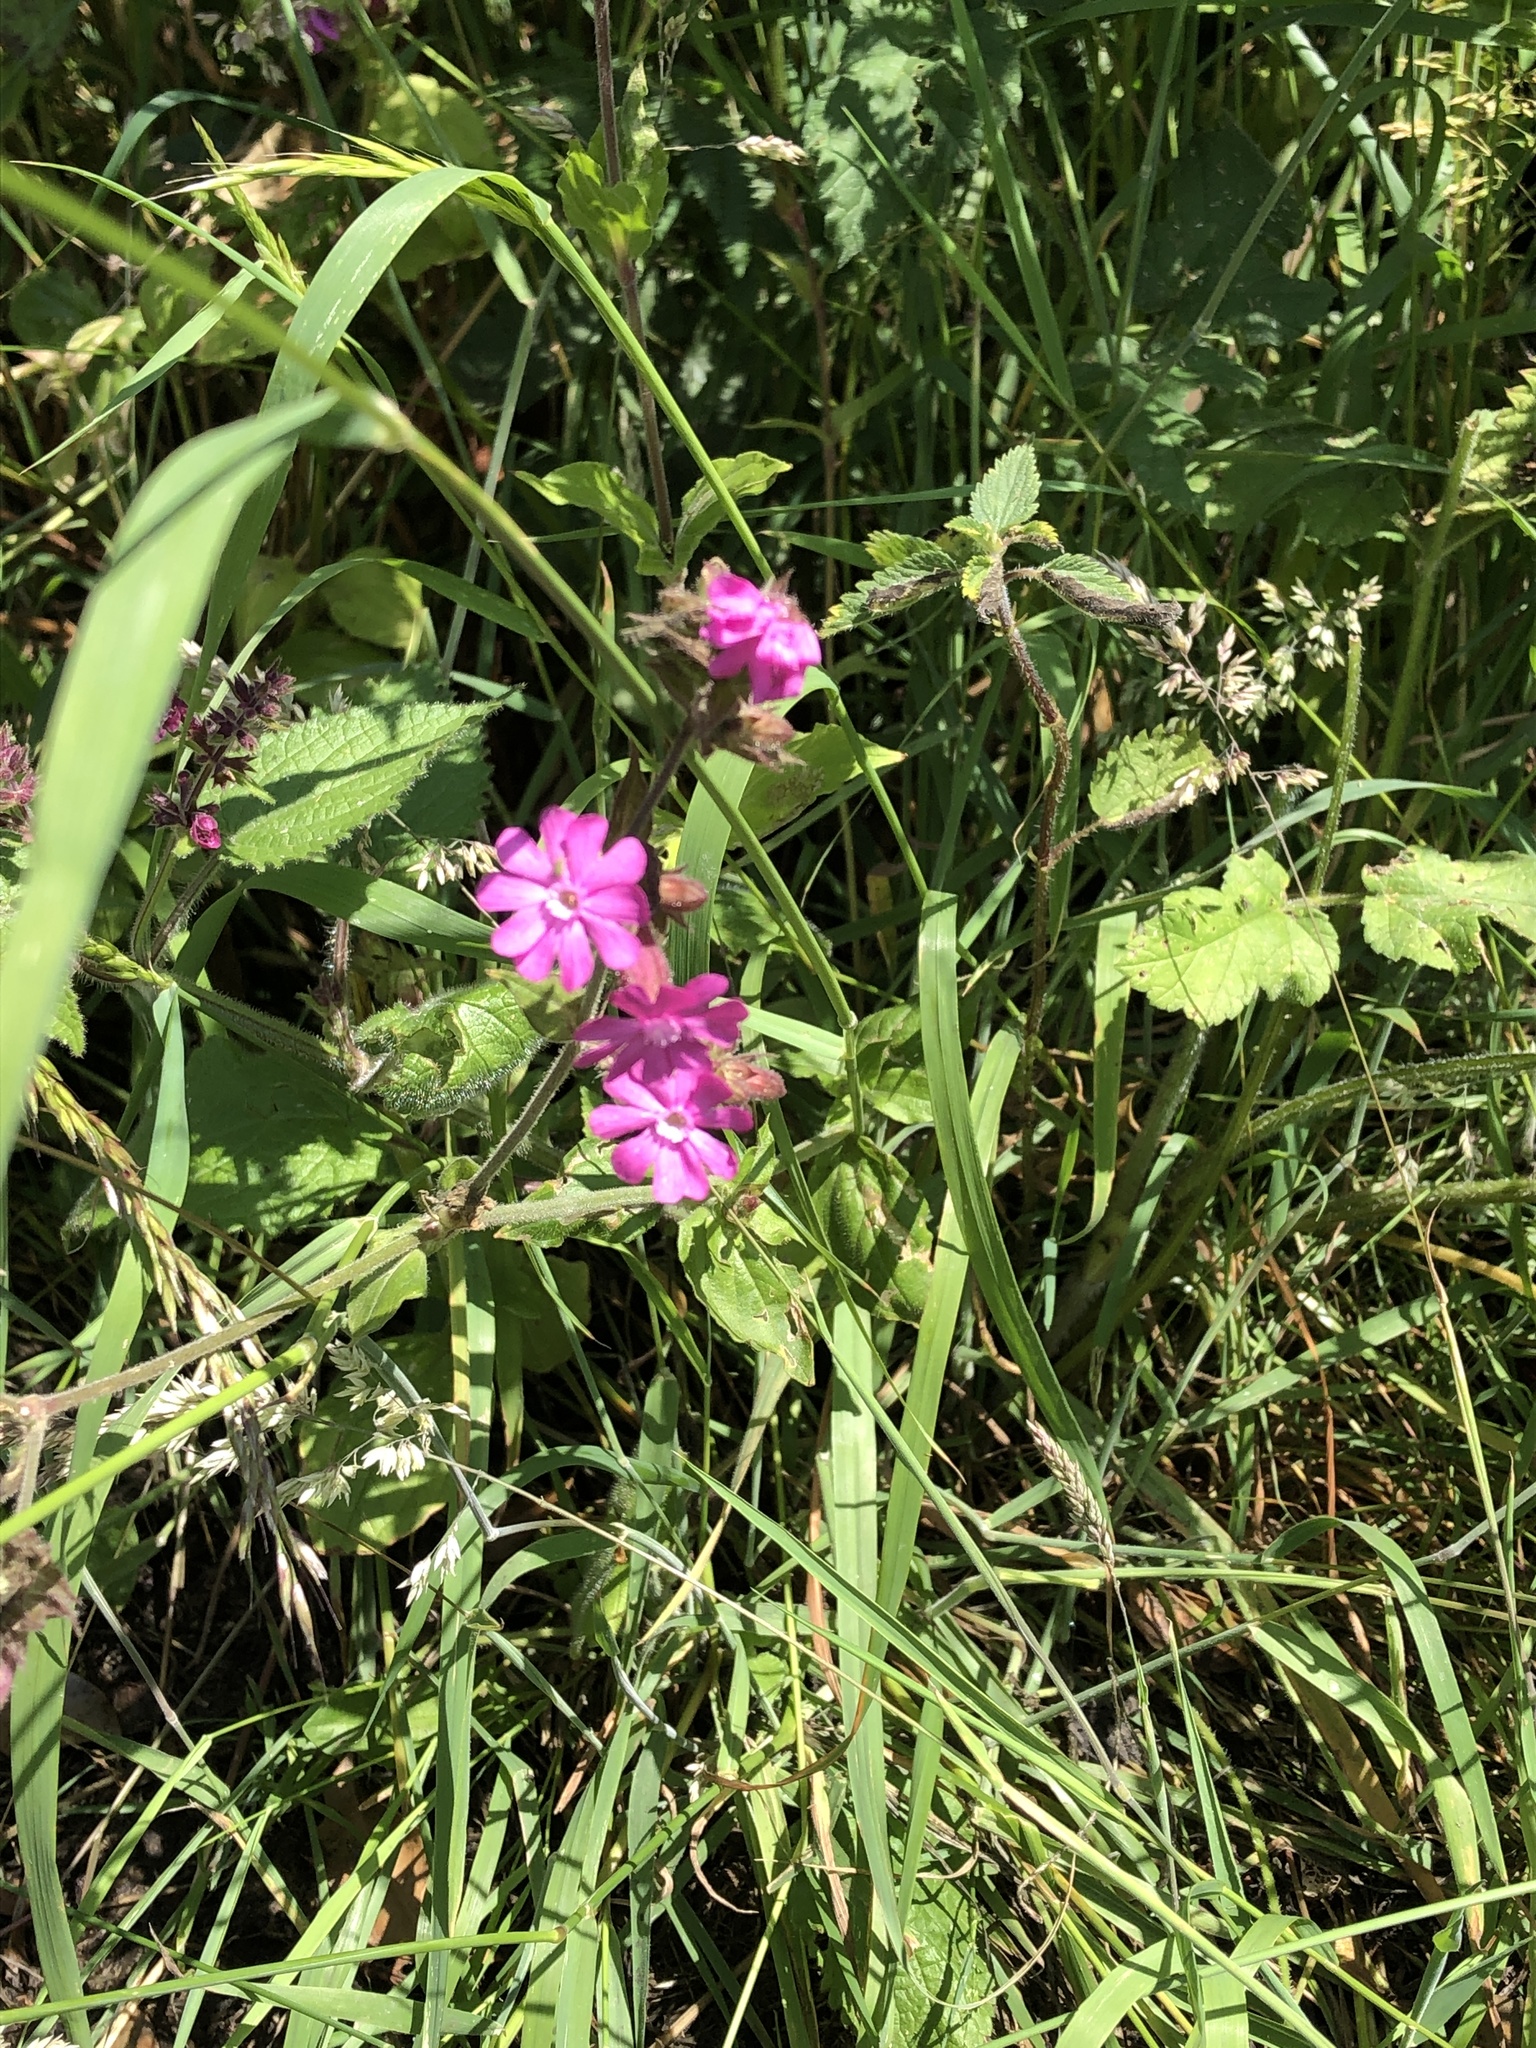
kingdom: Plantae
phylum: Tracheophyta
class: Magnoliopsida
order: Caryophyllales
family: Caryophyllaceae
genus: Silene
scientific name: Silene dioica
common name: Red campion
